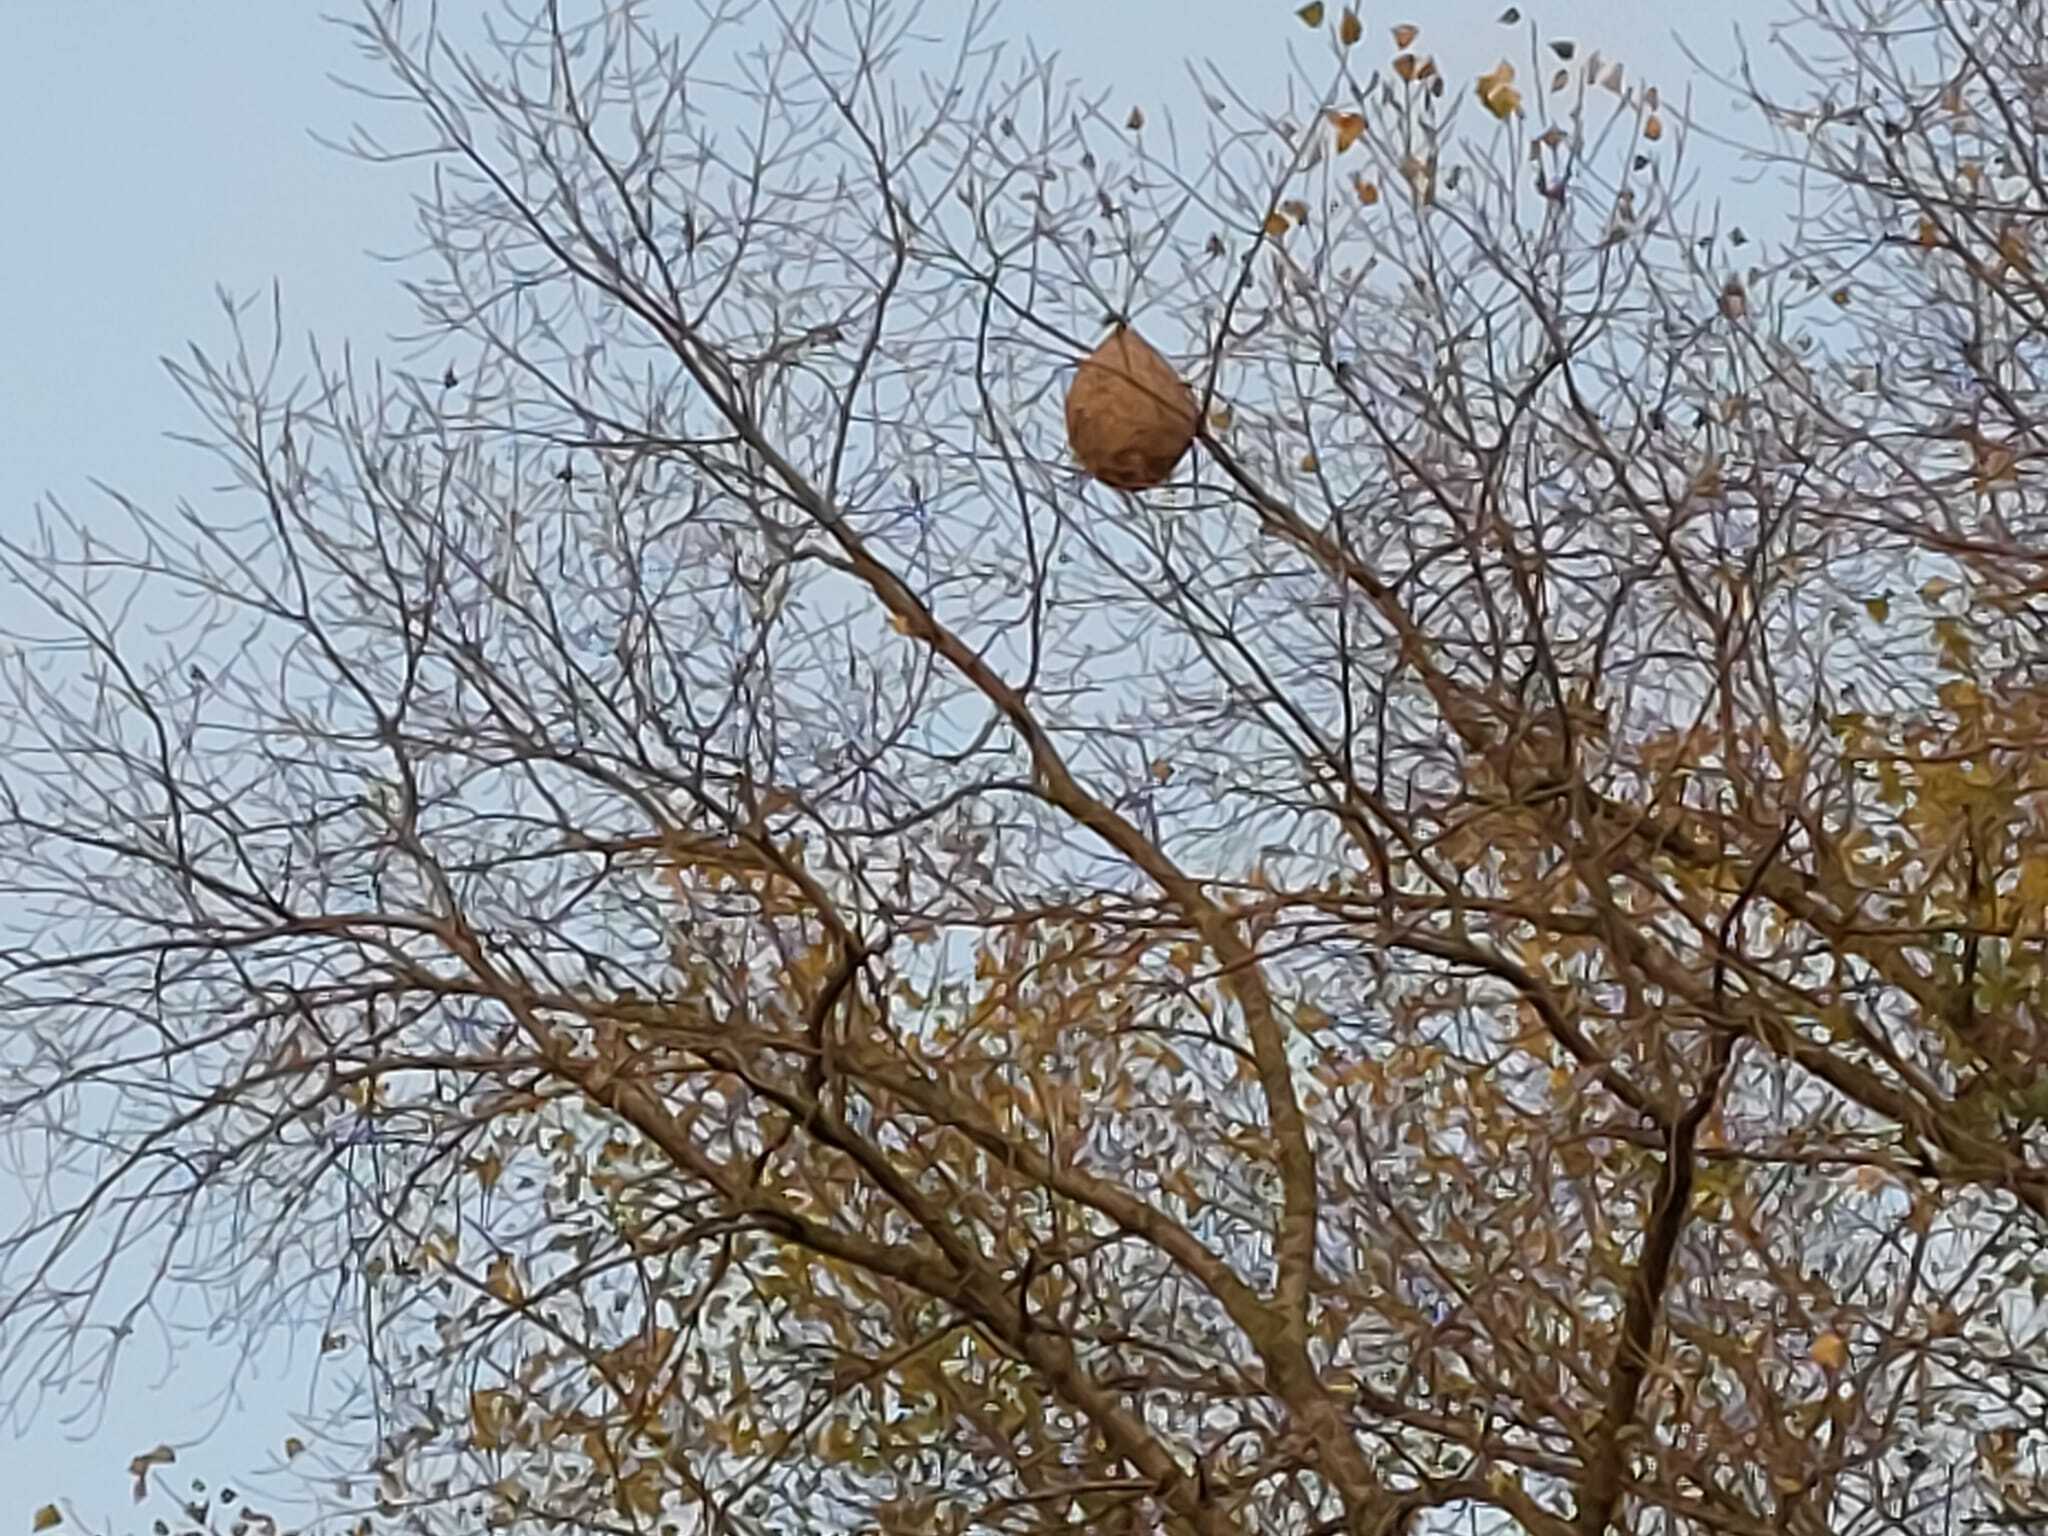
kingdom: Animalia
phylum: Arthropoda
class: Insecta
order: Hymenoptera
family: Vespidae
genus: Vespa
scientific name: Vespa velutina
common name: Asian hornet
